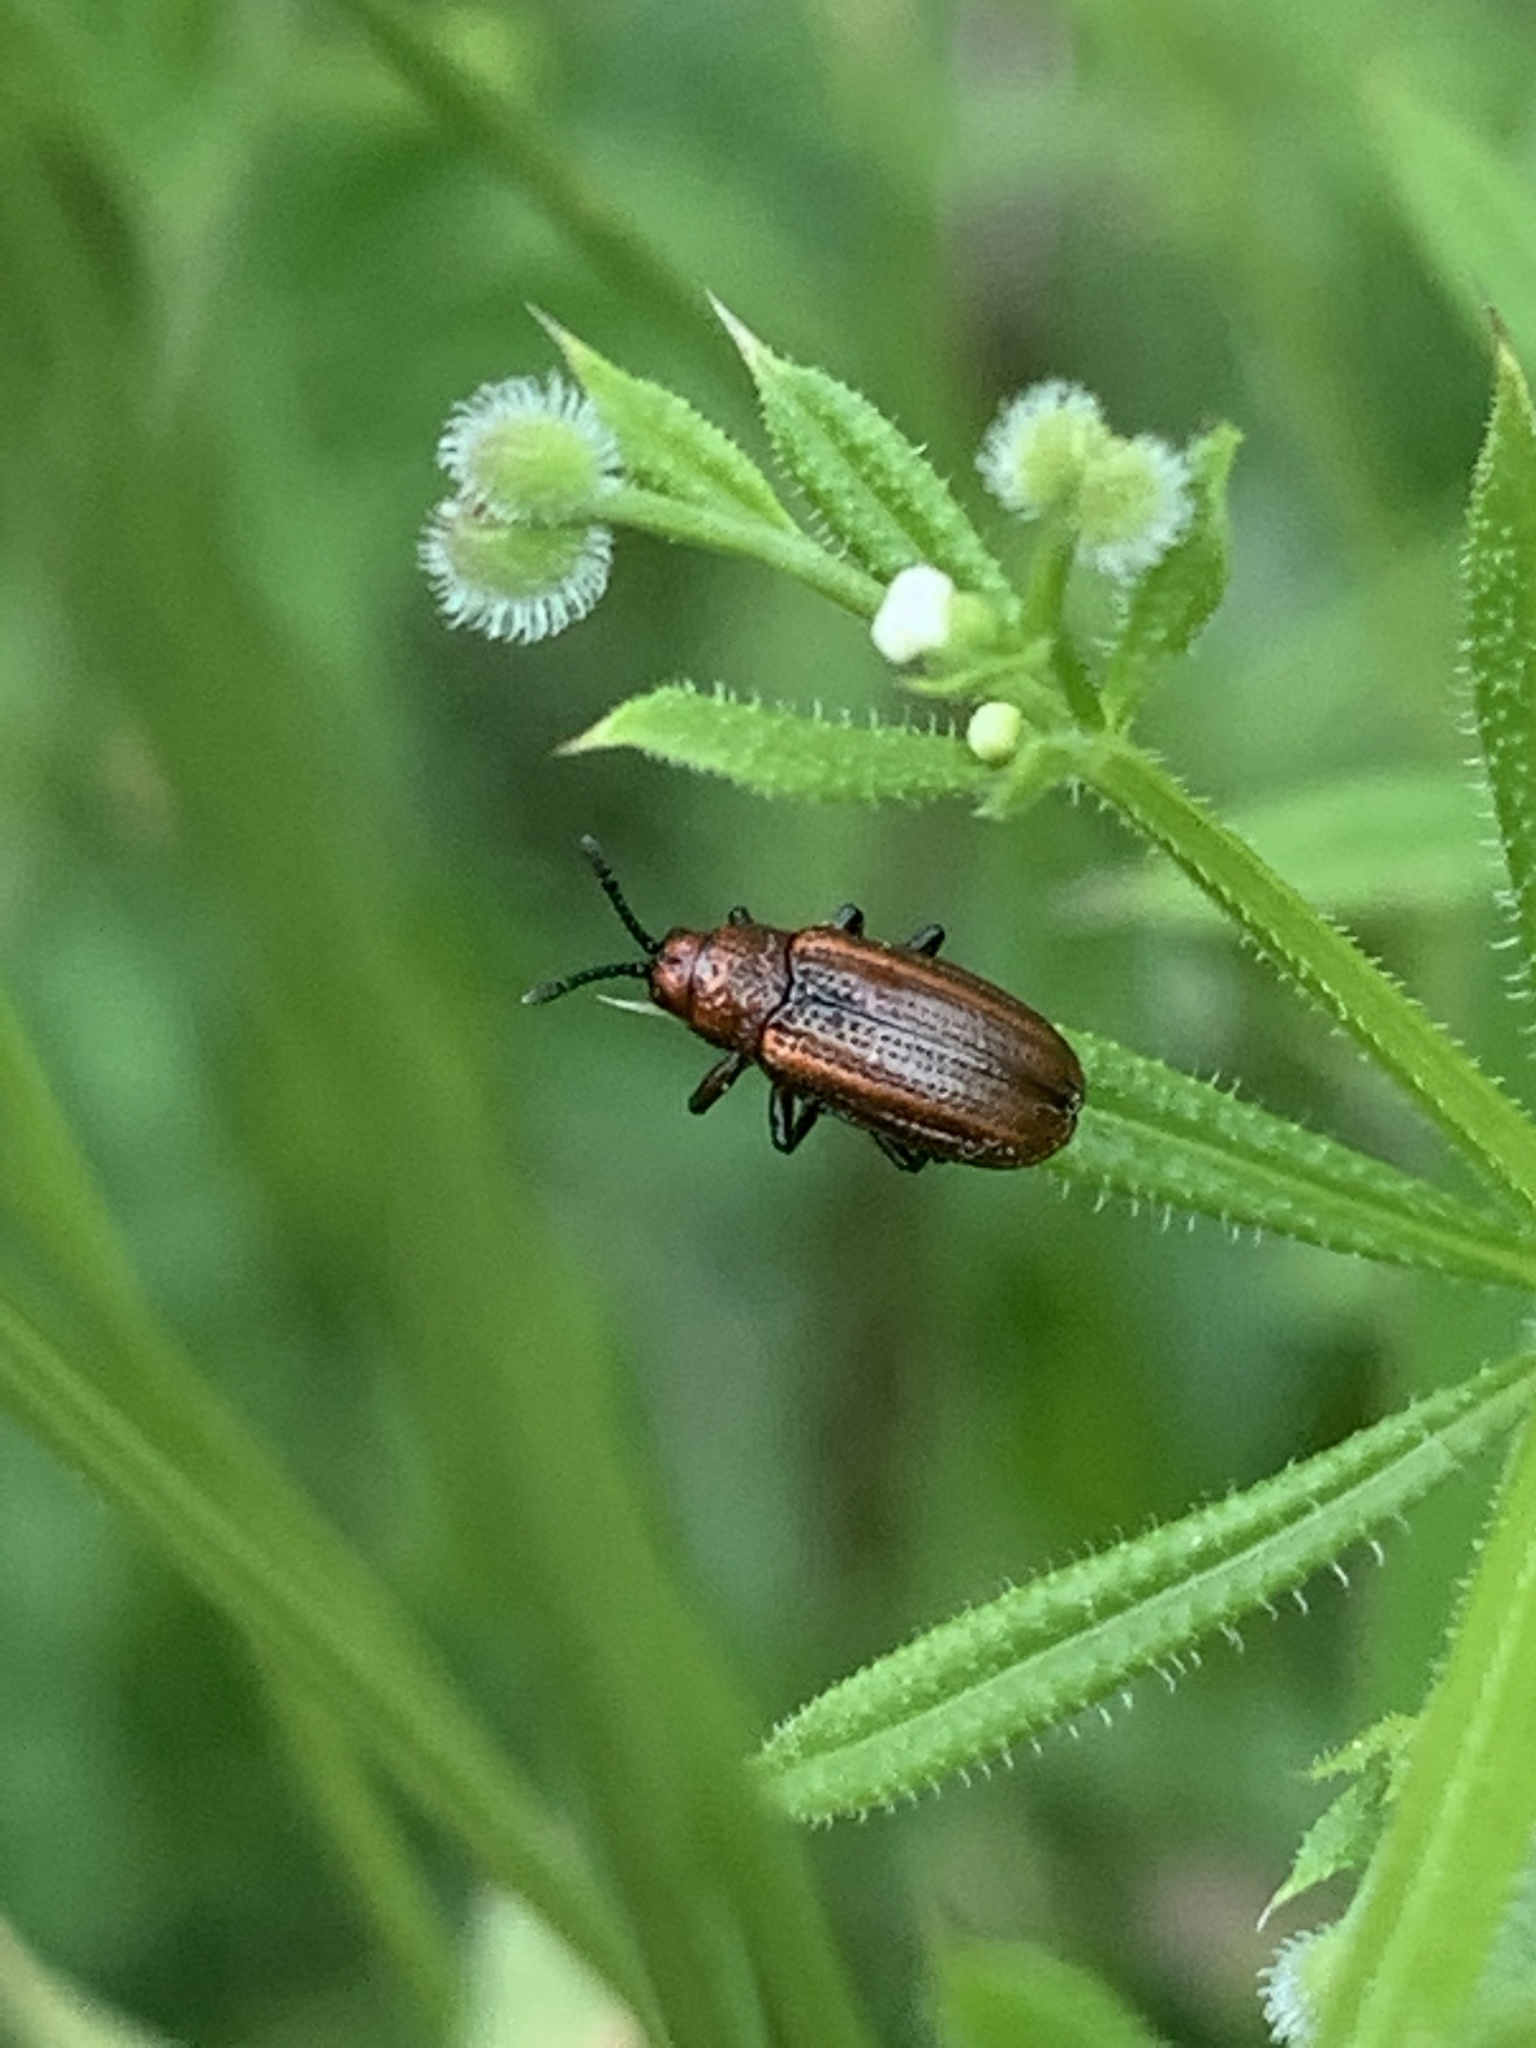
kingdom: Animalia
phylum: Arthropoda
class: Insecta
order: Coleoptera
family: Chrysomelidae
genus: Microrhopala
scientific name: Microrhopala vittata
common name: Goldenrod leaf miner beetle
